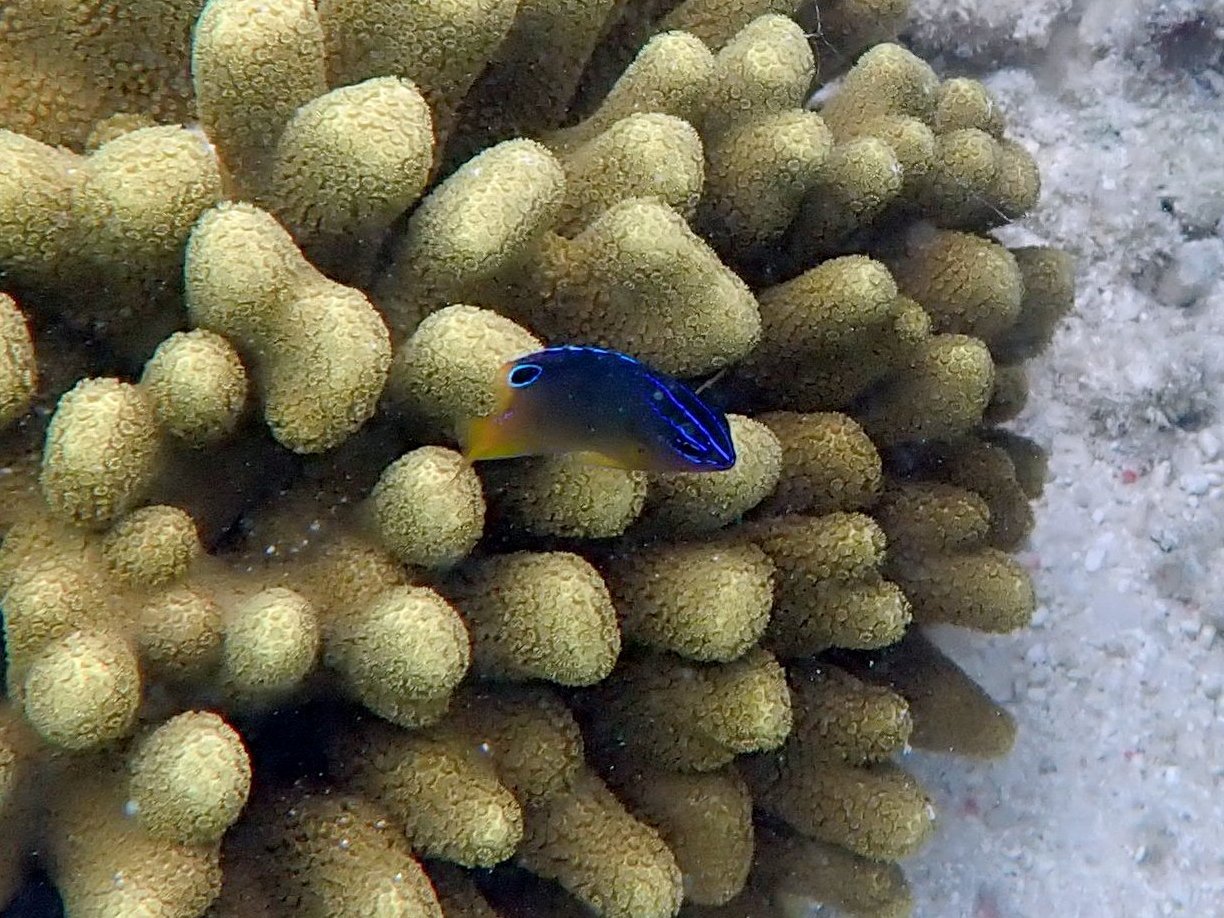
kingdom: Animalia
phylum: Chordata
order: Perciformes
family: Pomacentridae
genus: Pomacentrus
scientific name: Pomacentrus grammorhynchus
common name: Blue-spot damsel
